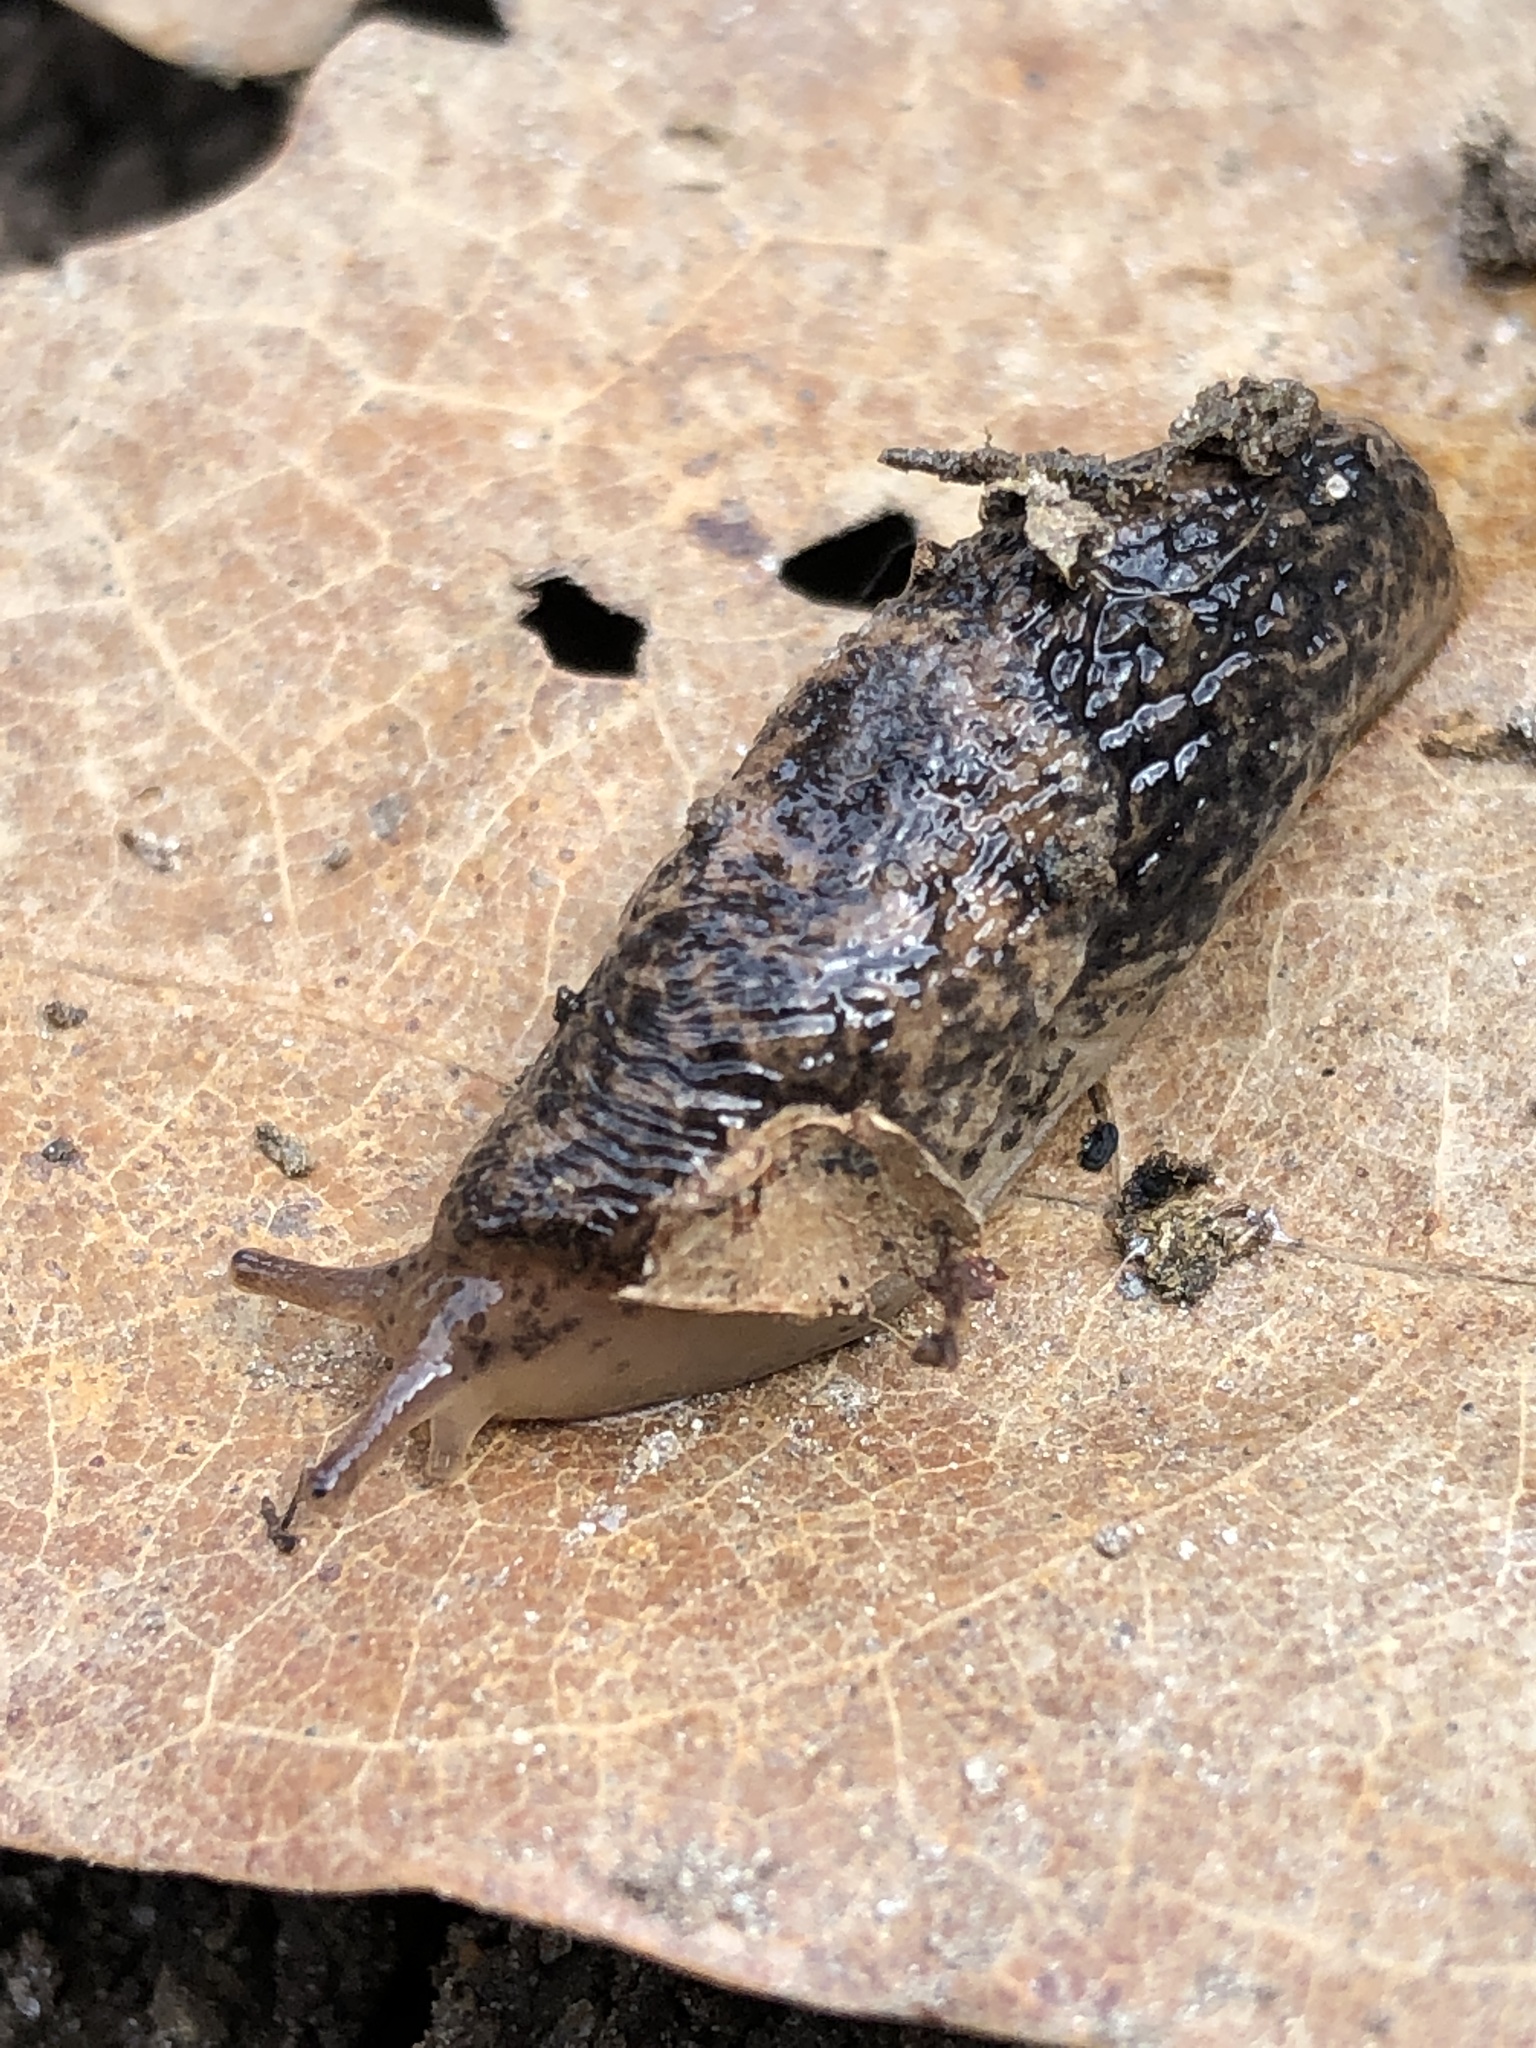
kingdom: Animalia
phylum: Mollusca
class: Gastropoda
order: Stylommatophora
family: Agriolimacidae
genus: Deroceras
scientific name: Deroceras reticulatum
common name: Gray field slug
